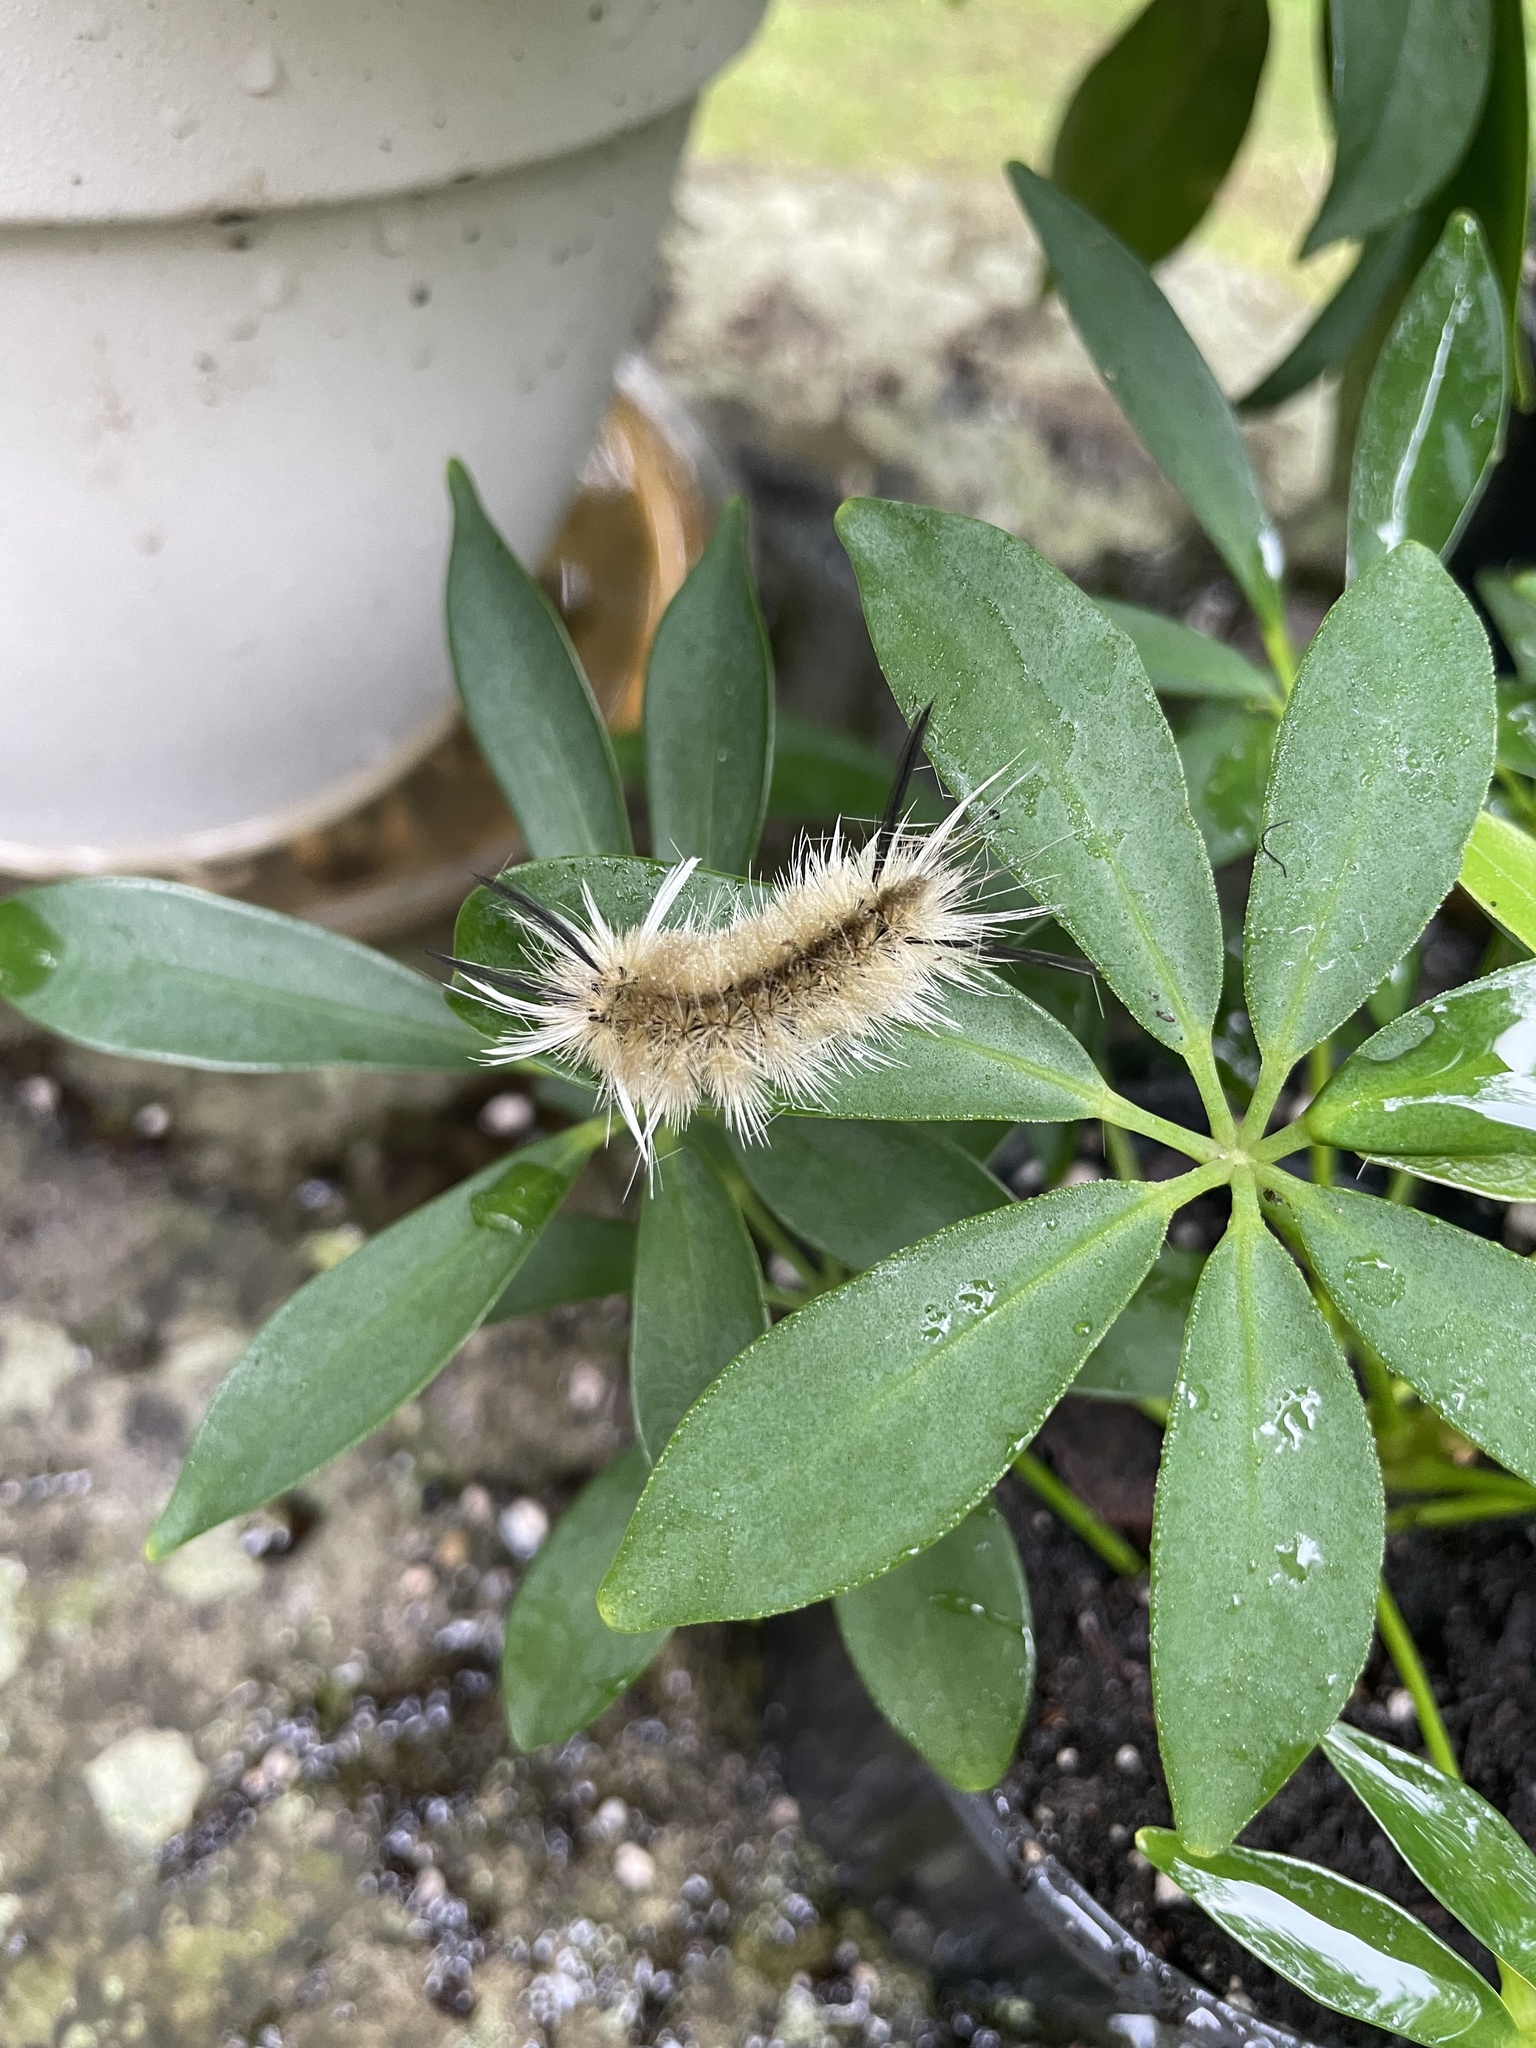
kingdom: Animalia
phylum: Arthropoda
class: Insecta
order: Lepidoptera
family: Erebidae
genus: Halysidota
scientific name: Halysidota tessellaris
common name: Banded tussock moth
